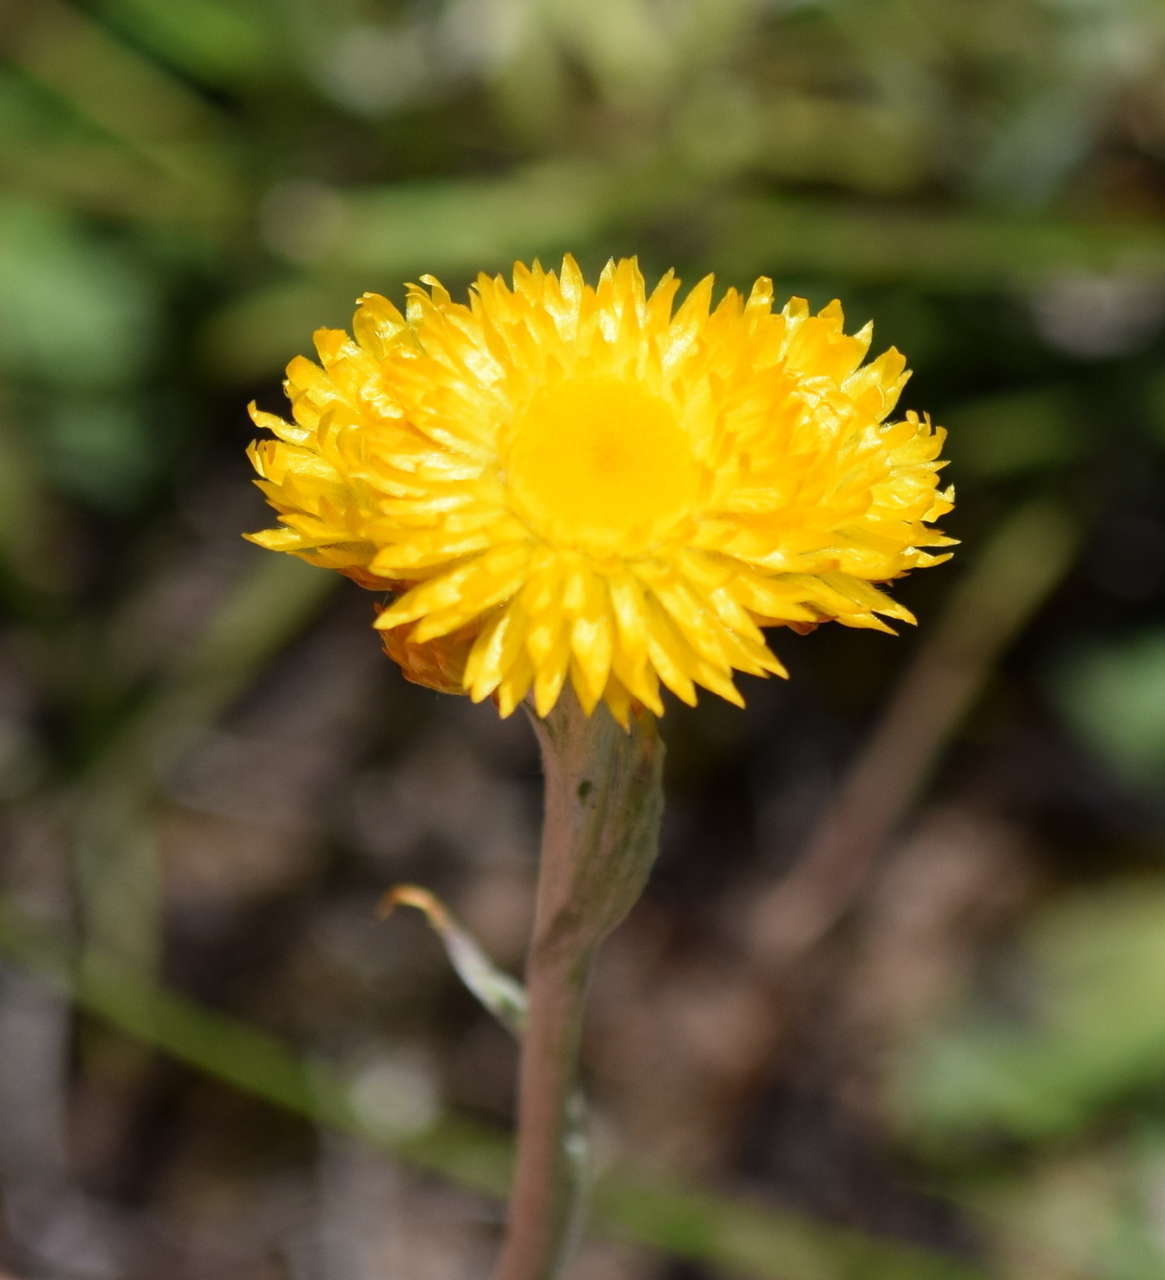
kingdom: Plantae
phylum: Tracheophyta
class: Magnoliopsida
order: Asterales
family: Asteraceae
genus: Chrysocephalum
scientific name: Chrysocephalum apiculatum
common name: Common everlasting
